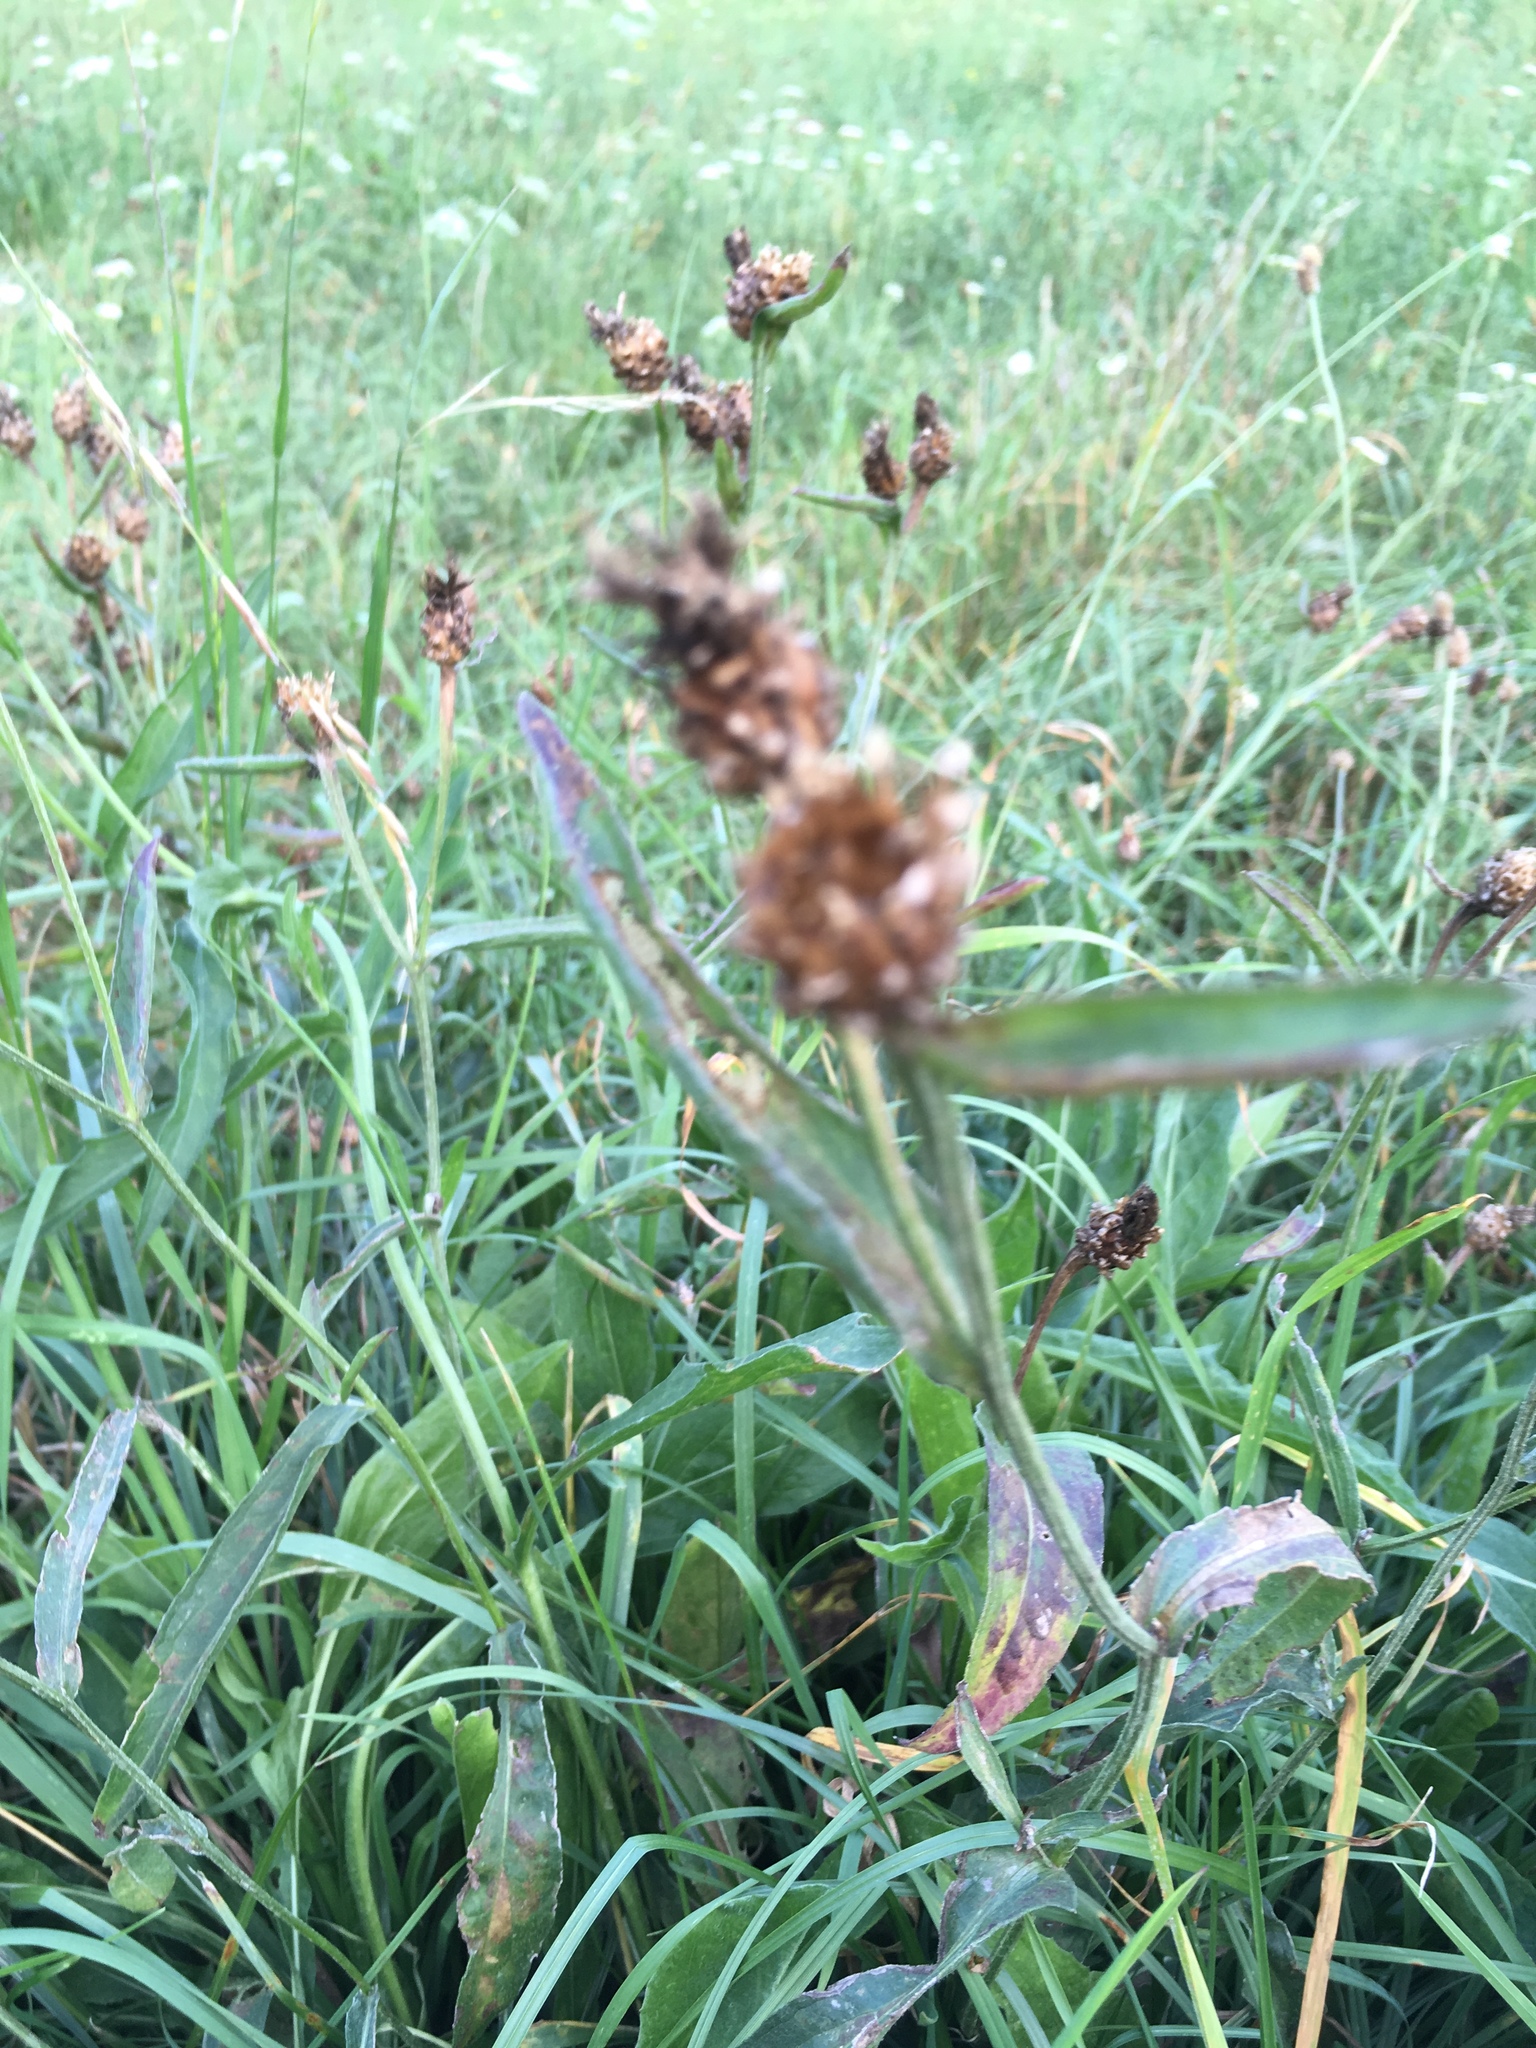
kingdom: Plantae
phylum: Tracheophyta
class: Magnoliopsida
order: Asterales
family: Asteraceae
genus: Centaurea
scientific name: Centaurea jacea
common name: Brown knapweed
